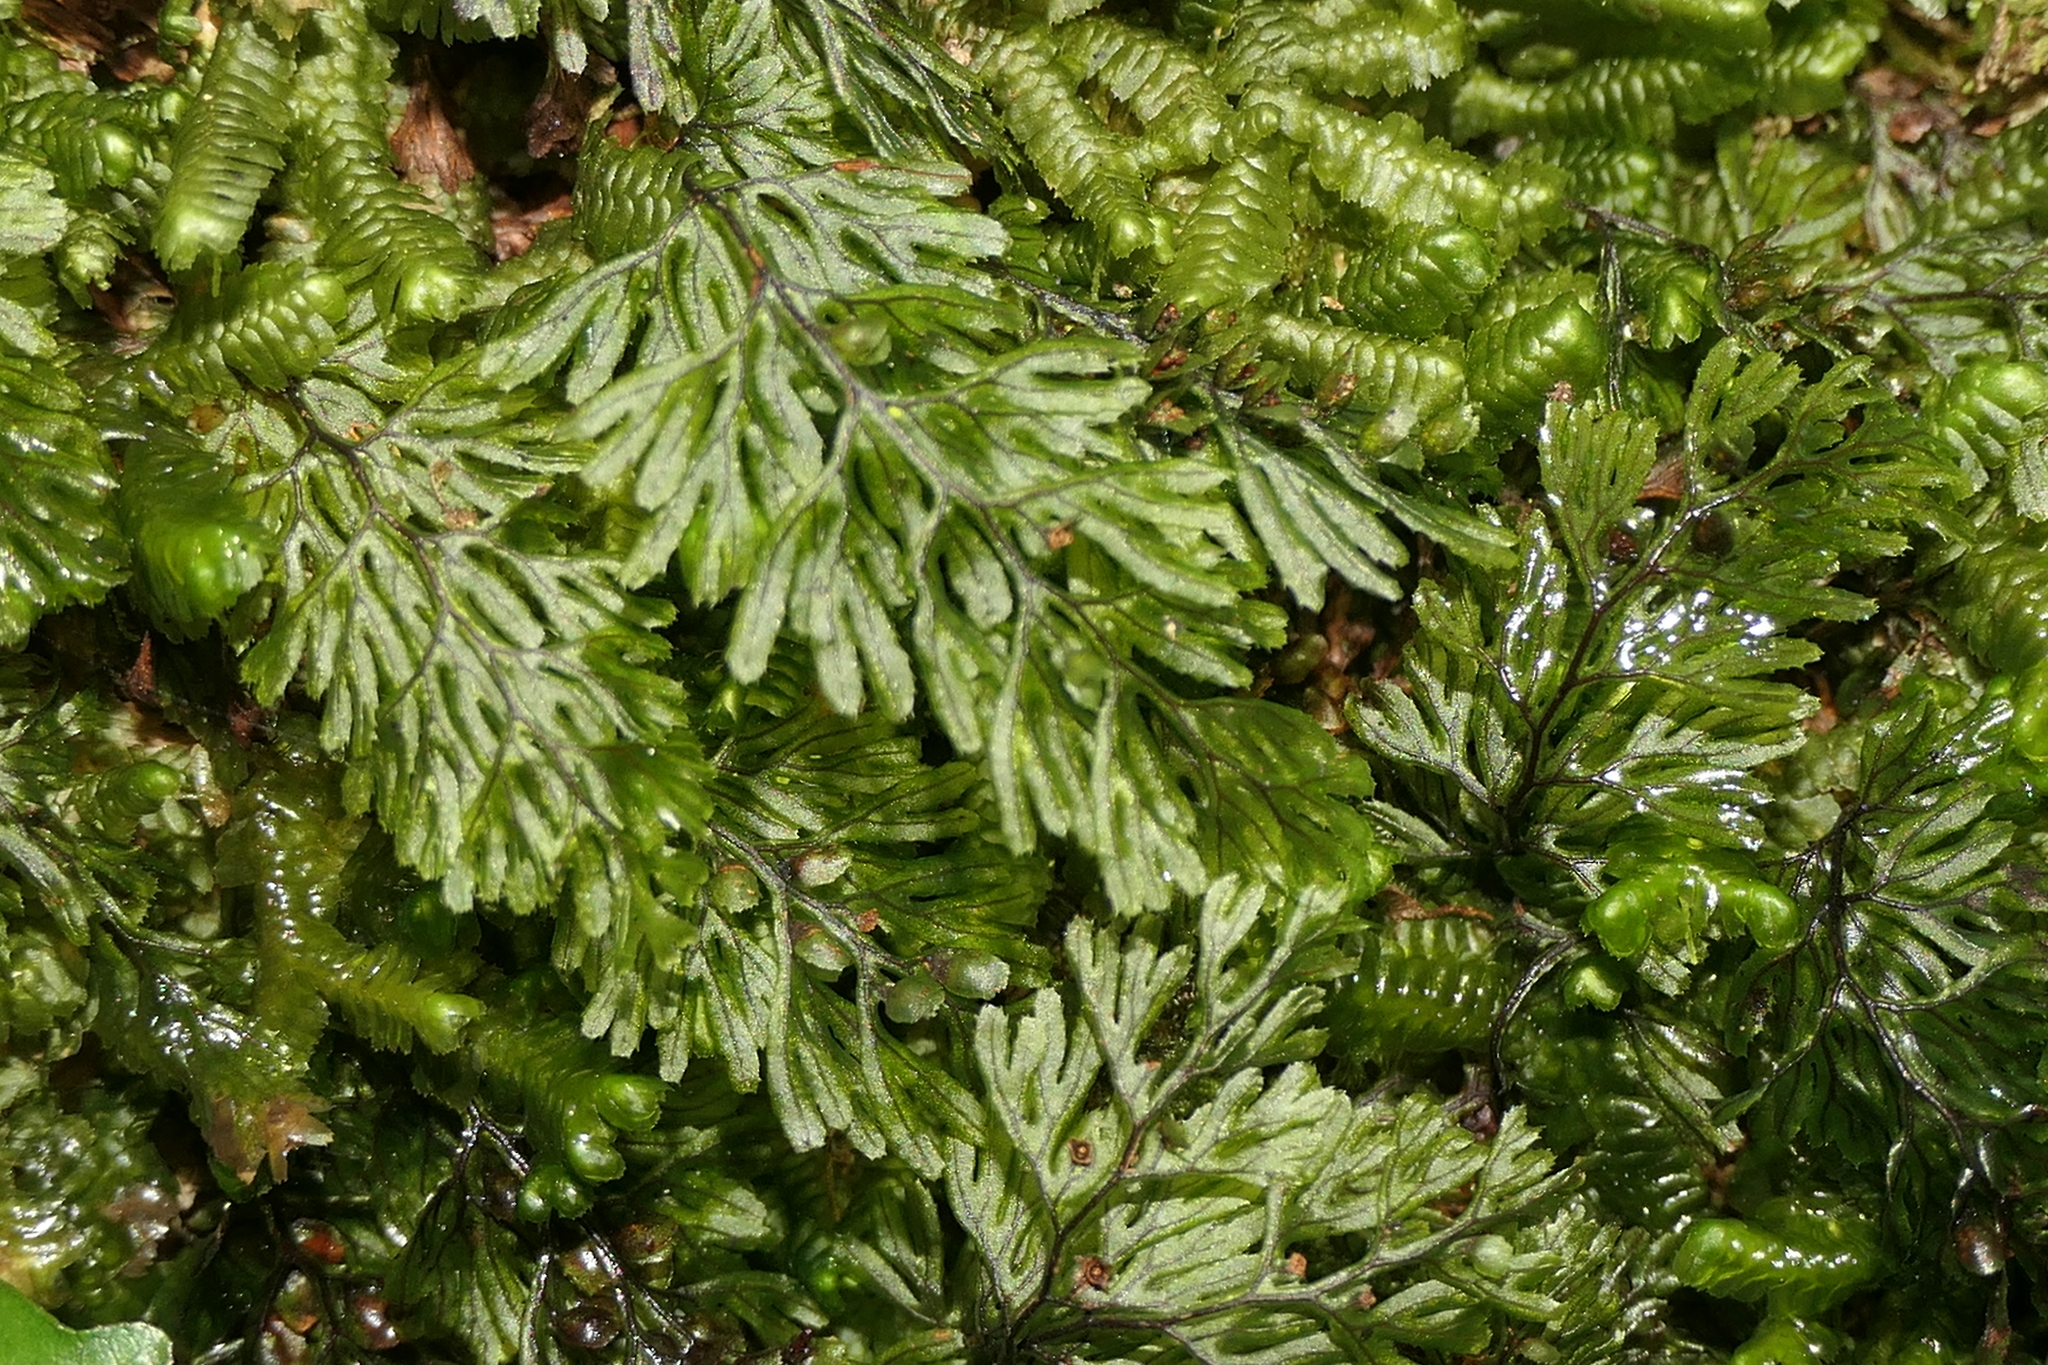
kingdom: Plantae
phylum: Tracheophyta
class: Polypodiopsida
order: Hymenophyllales
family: Hymenophyllaceae
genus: Hymenophyllum
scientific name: Hymenophyllum tunbrigense
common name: Tunbridge filmy fern
